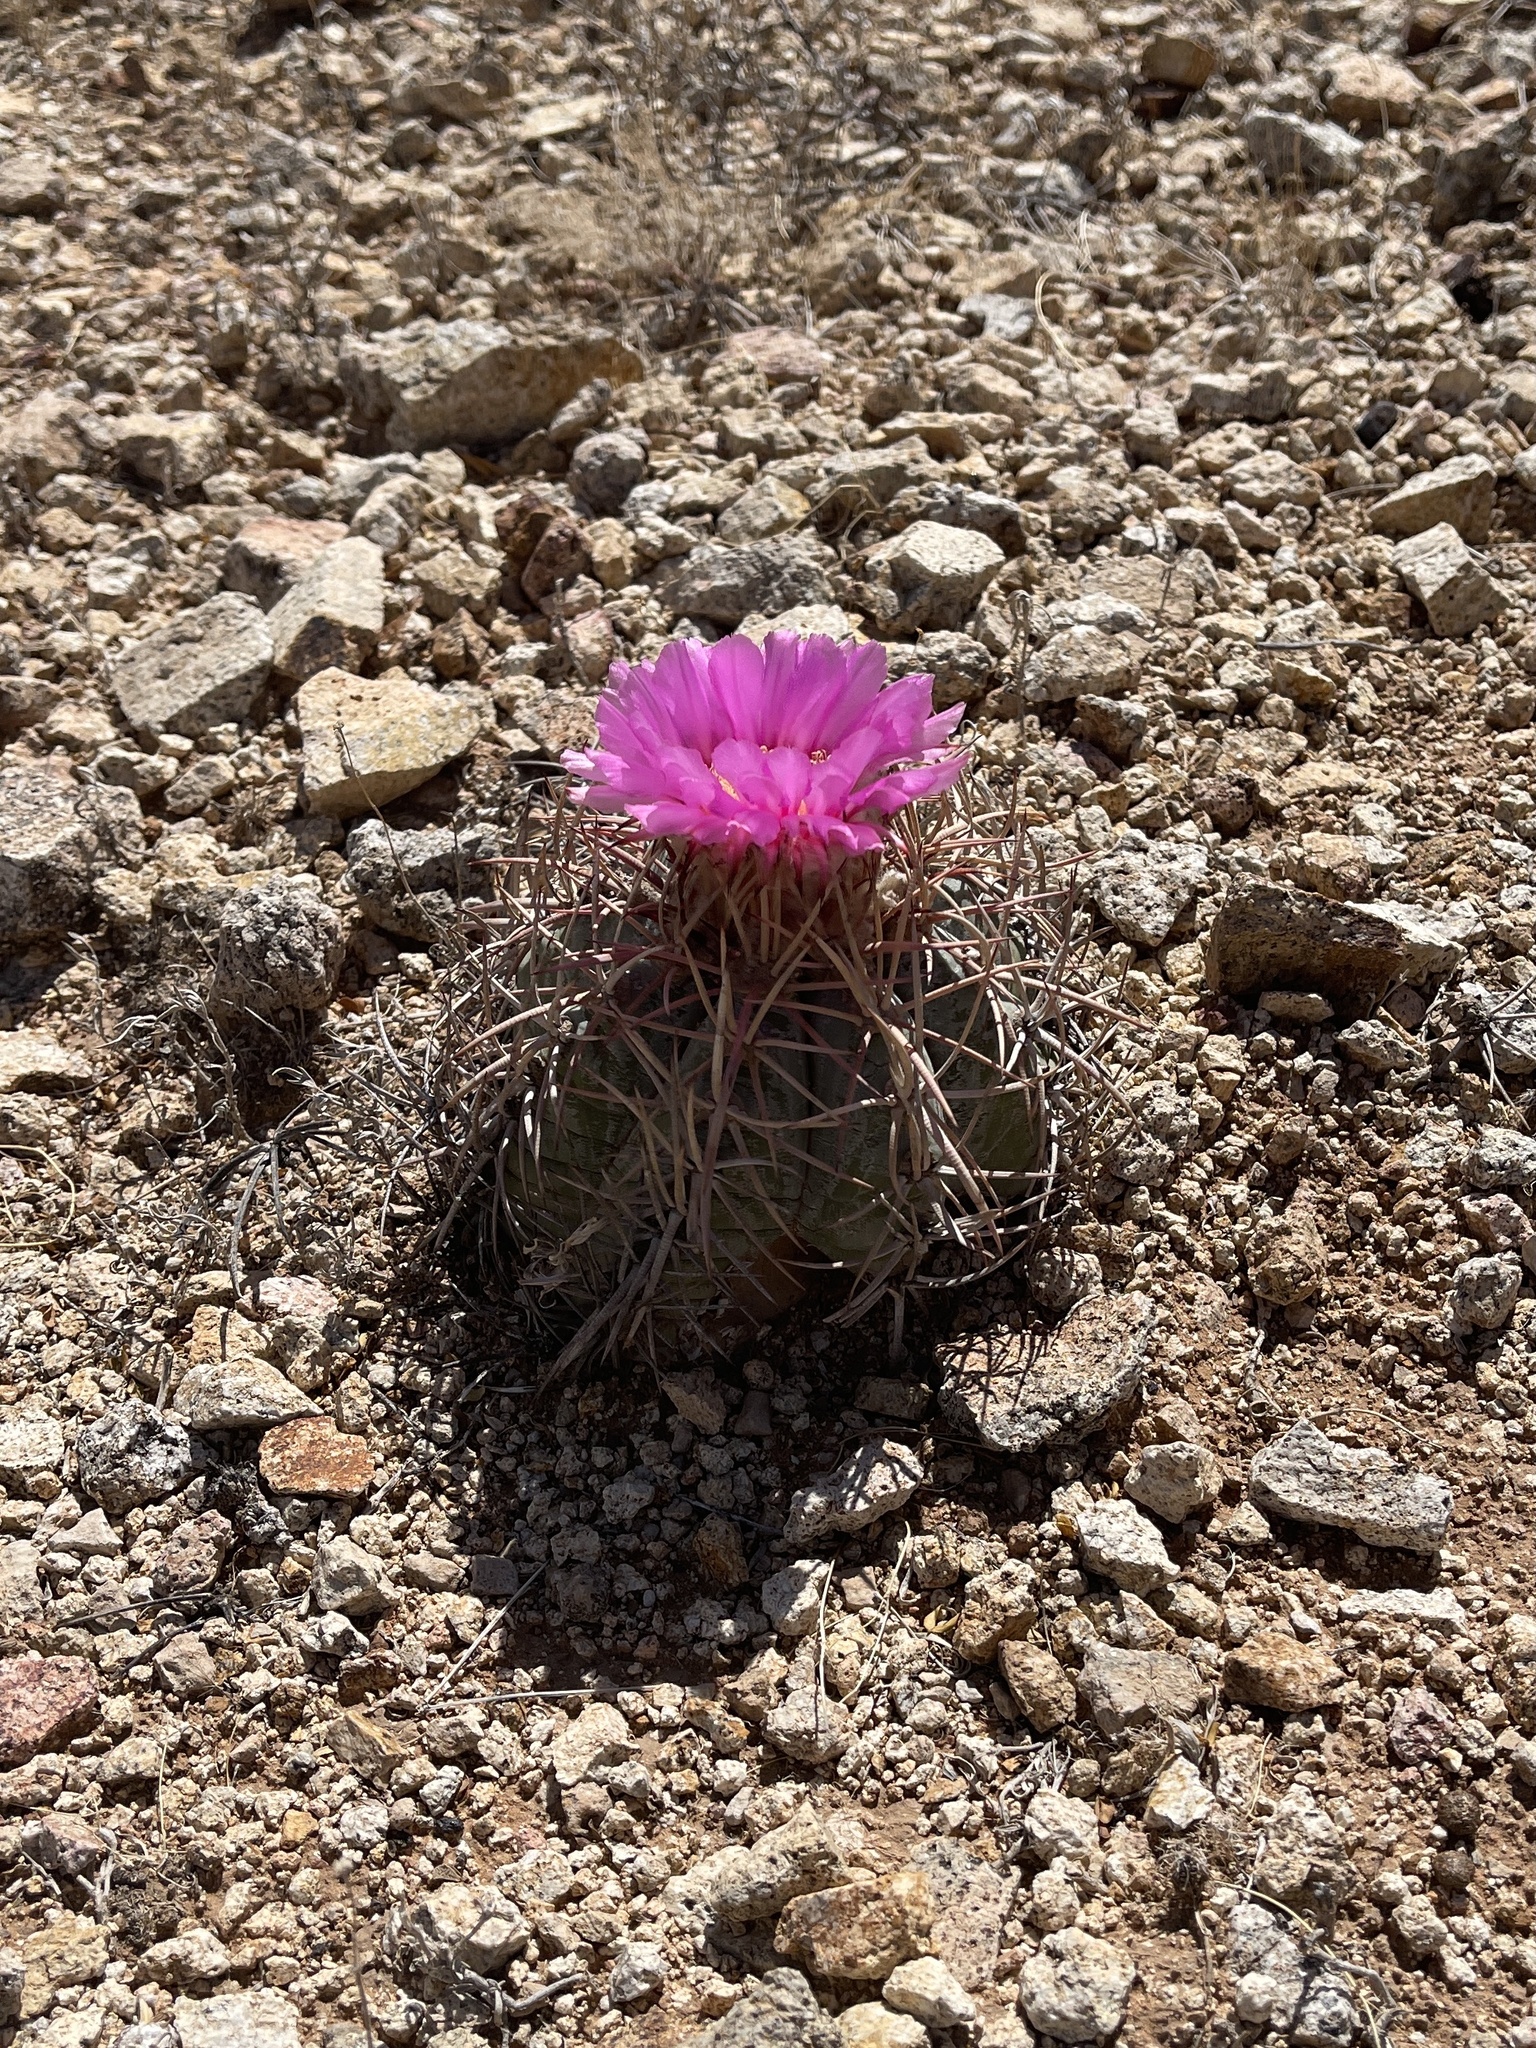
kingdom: Plantae
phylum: Tracheophyta
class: Magnoliopsida
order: Caryophyllales
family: Cactaceae
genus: Echinocactus
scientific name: Echinocactus horizonthalonius
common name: Devilshead
